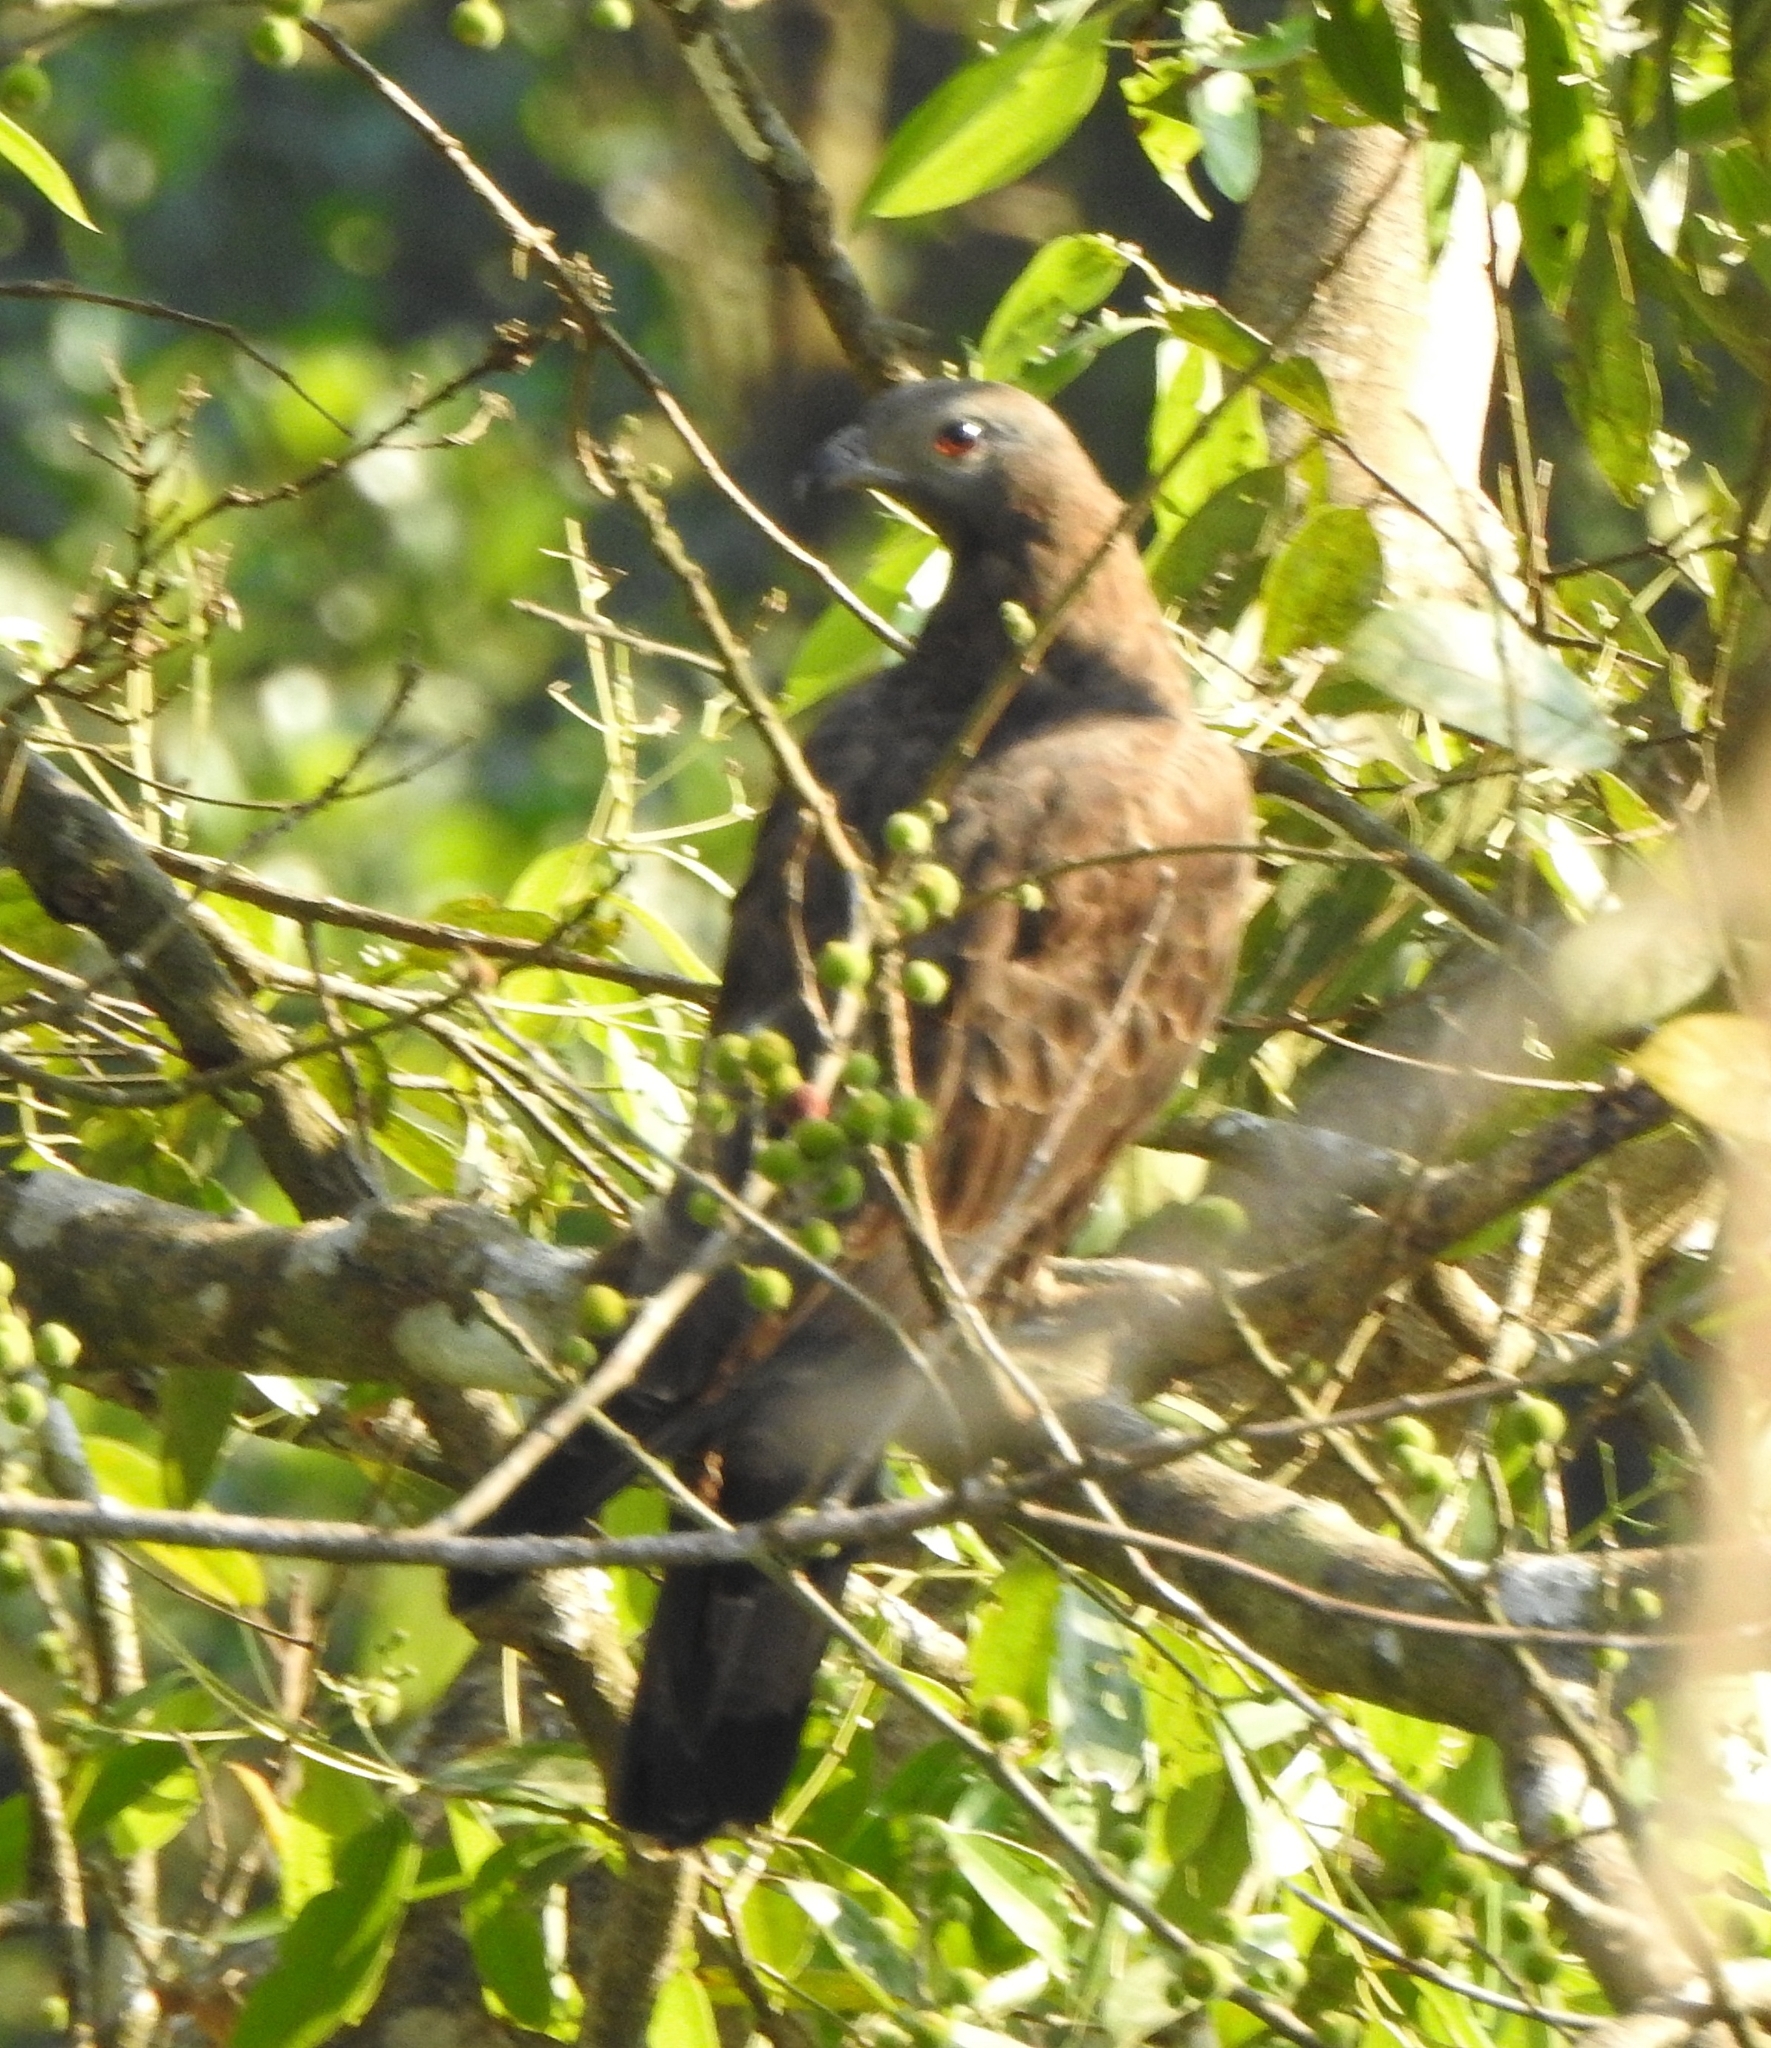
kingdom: Animalia
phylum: Chordata
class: Aves
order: Accipitriformes
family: Accipitridae
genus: Pernis
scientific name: Pernis ptilorhynchus
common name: Crested honey buzzard
